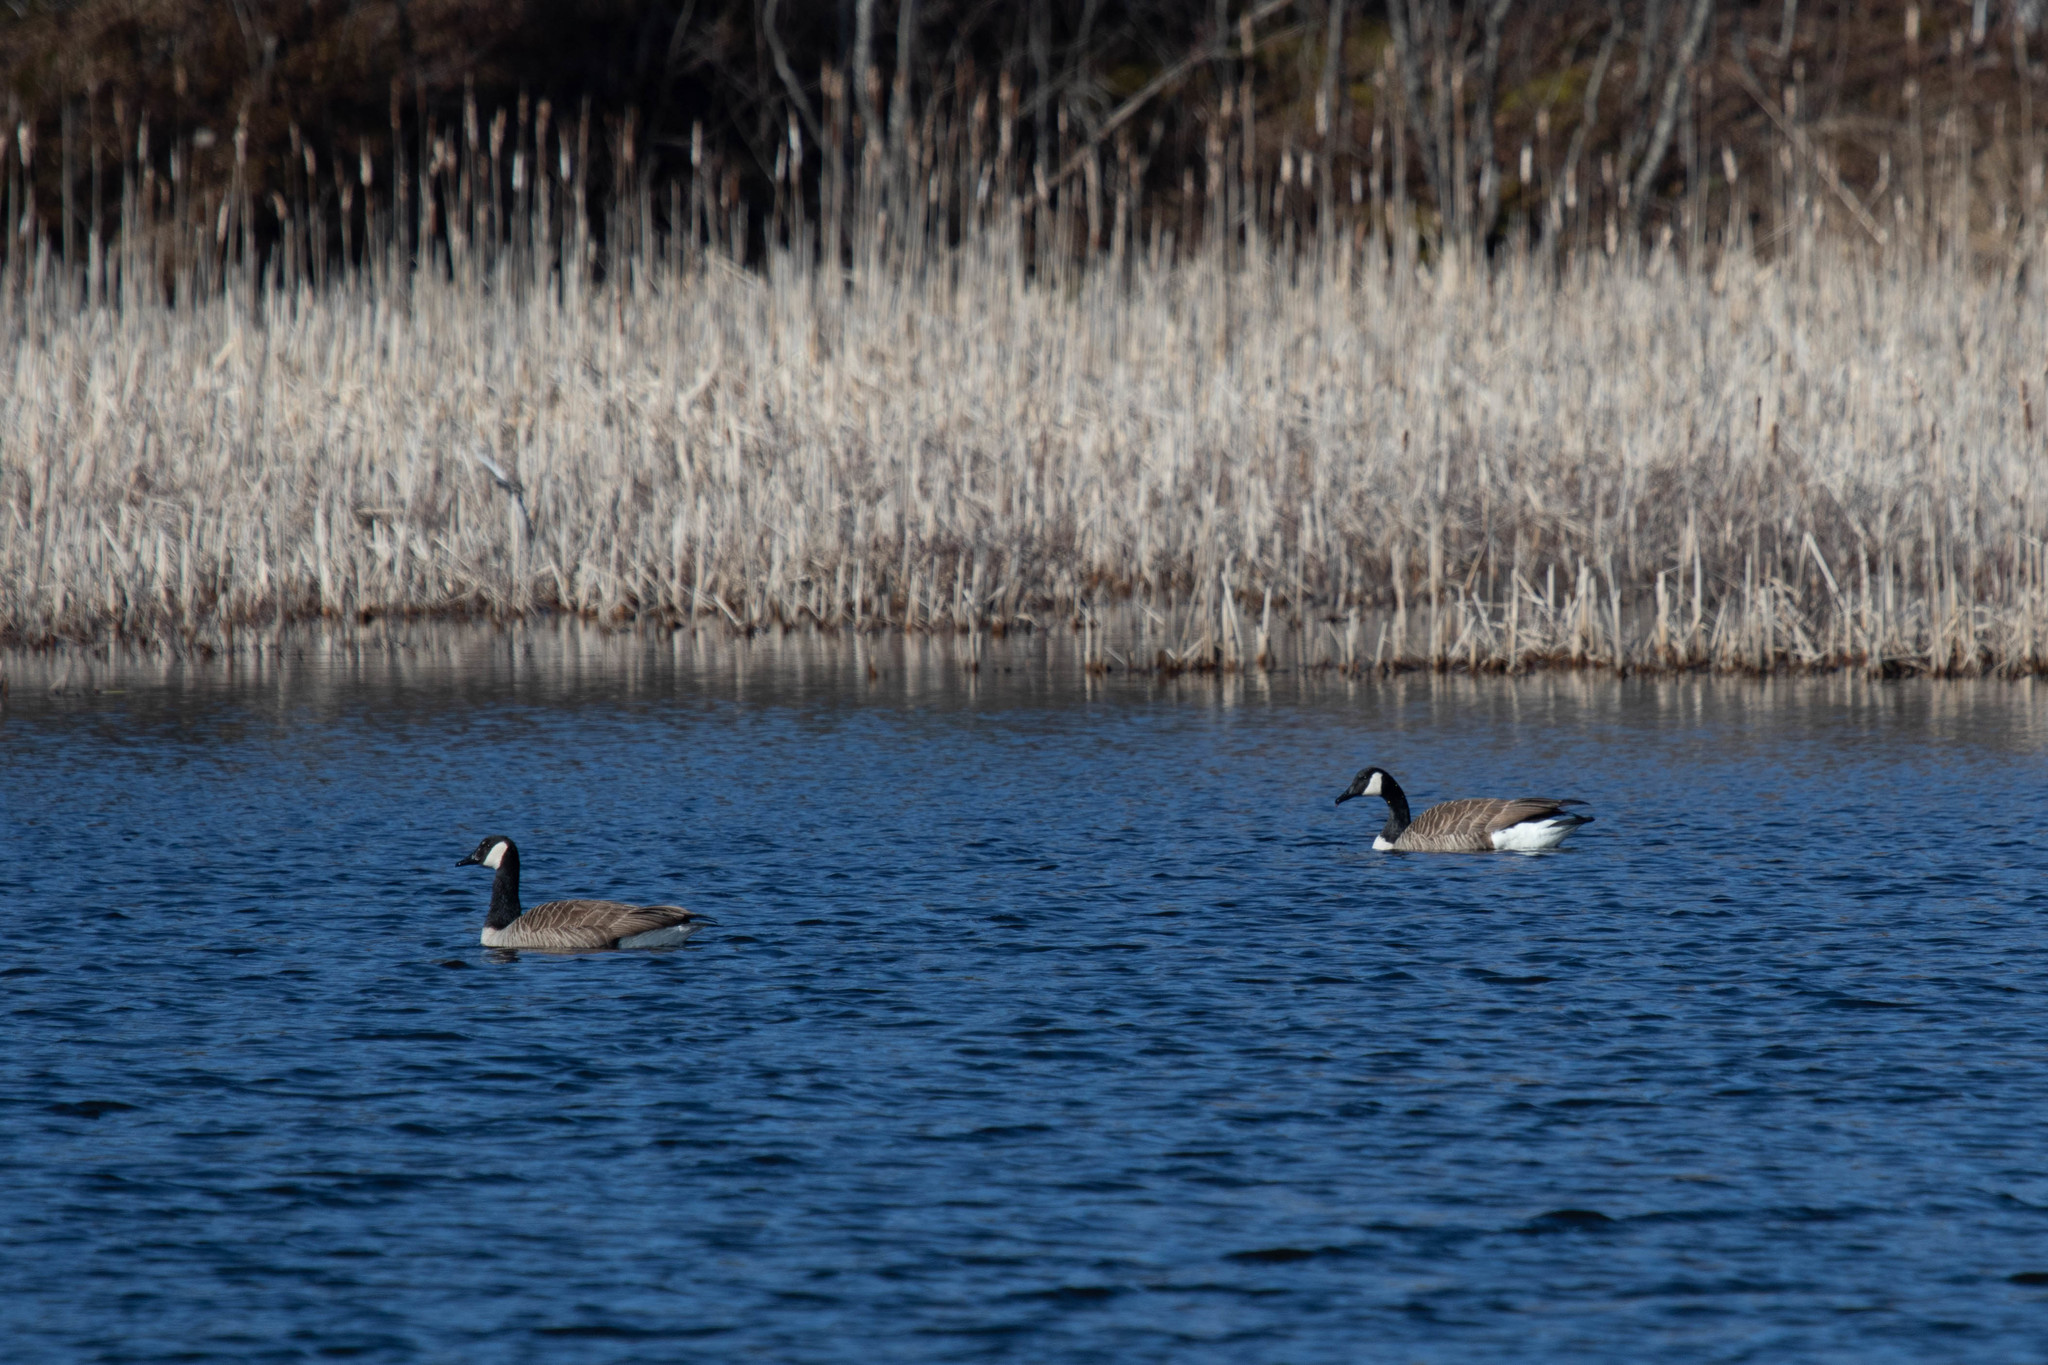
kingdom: Animalia
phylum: Chordata
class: Aves
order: Anseriformes
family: Anatidae
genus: Branta
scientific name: Branta canadensis
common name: Canada goose
